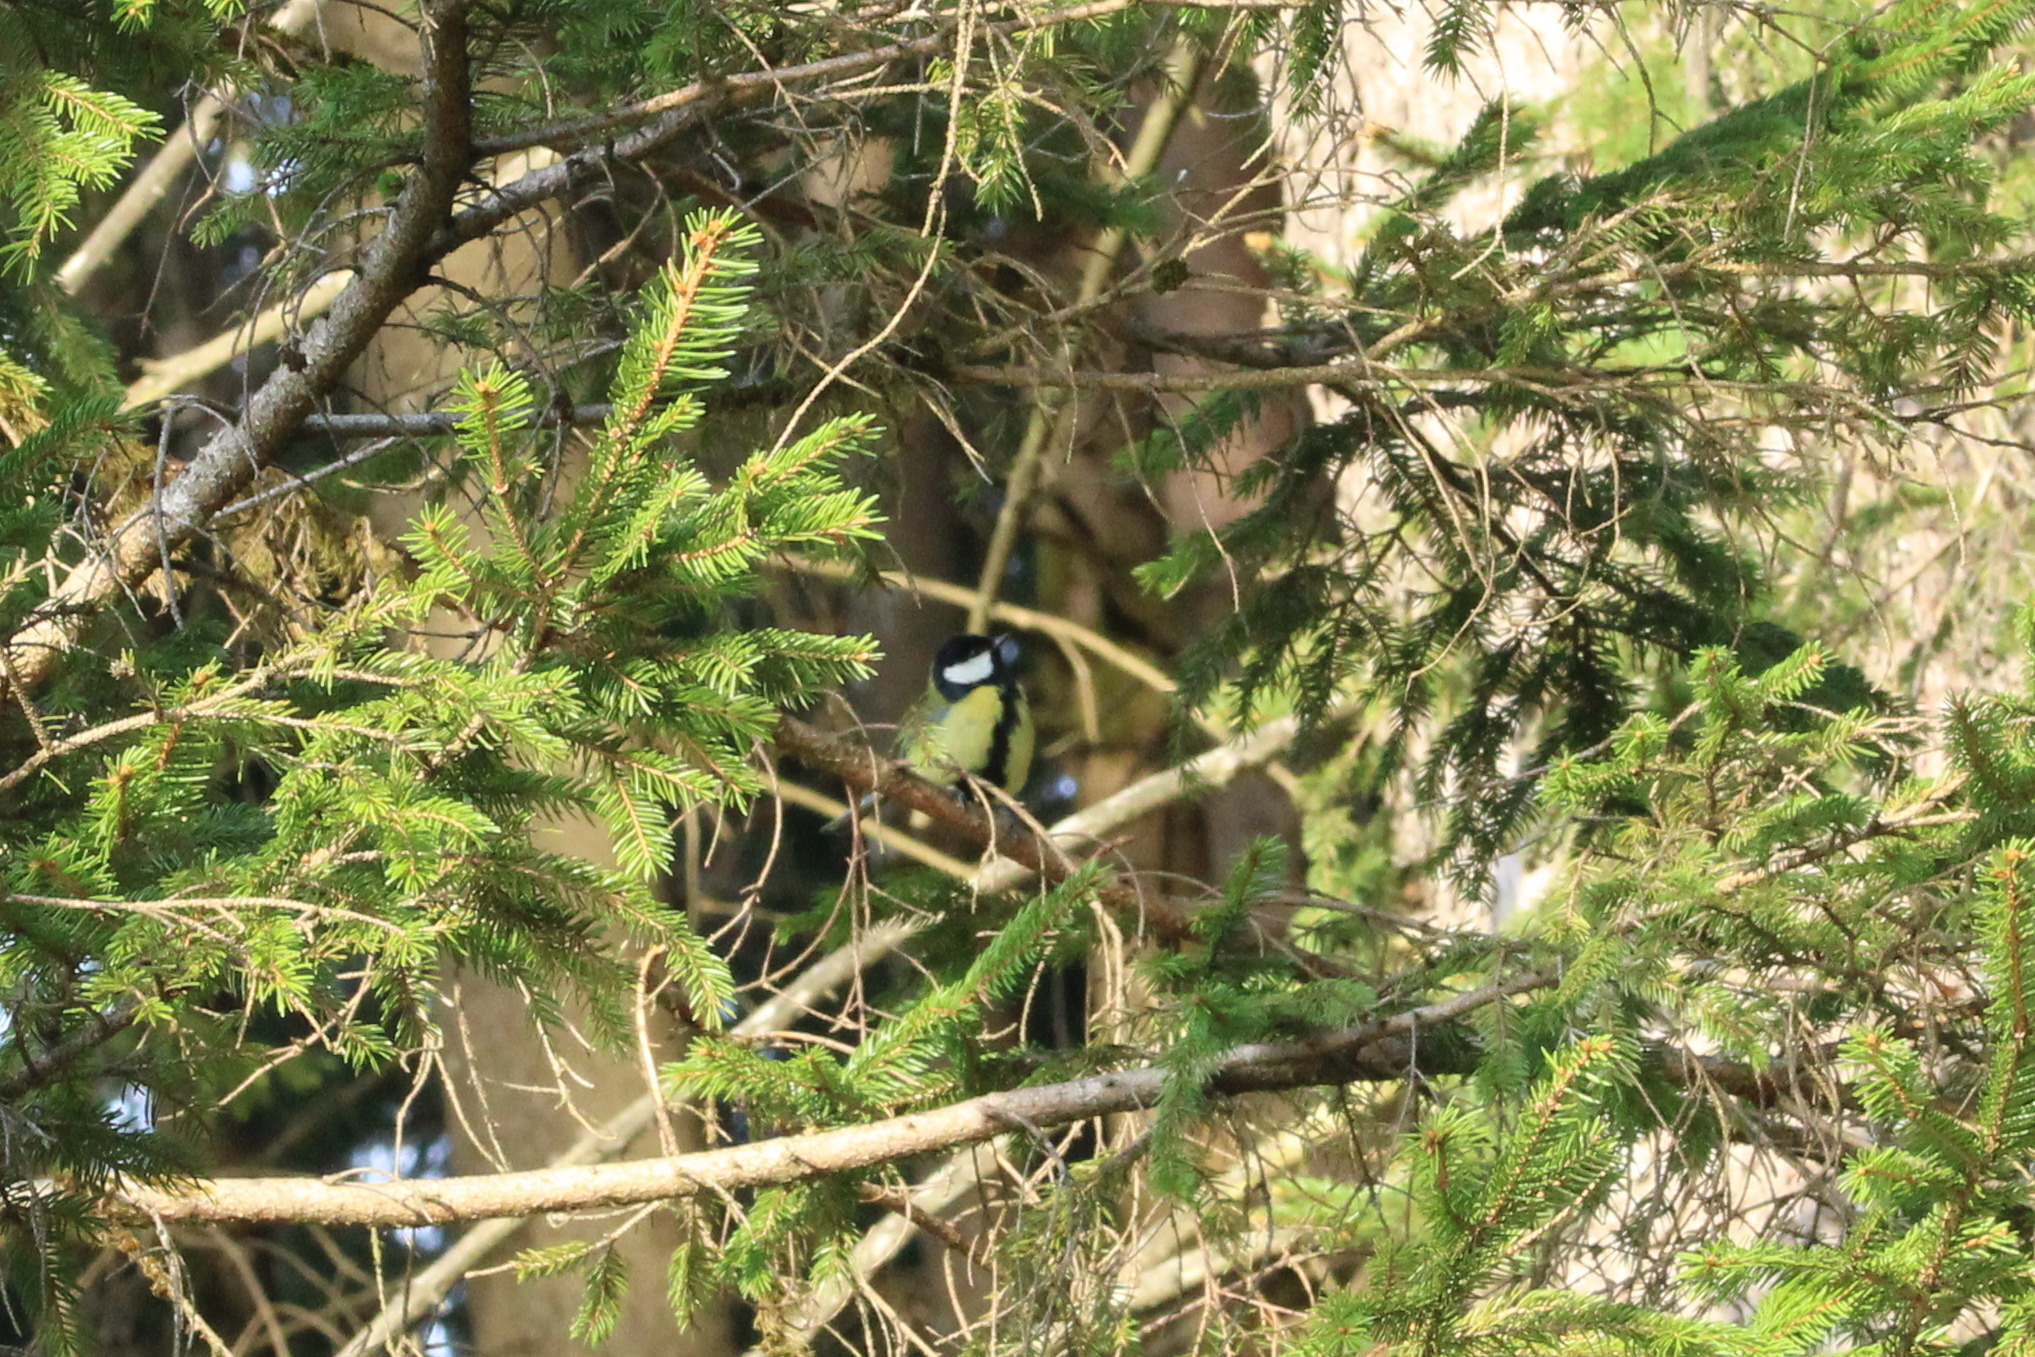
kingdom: Animalia
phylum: Chordata
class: Aves
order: Passeriformes
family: Paridae
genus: Parus
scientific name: Parus major
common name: Great tit
